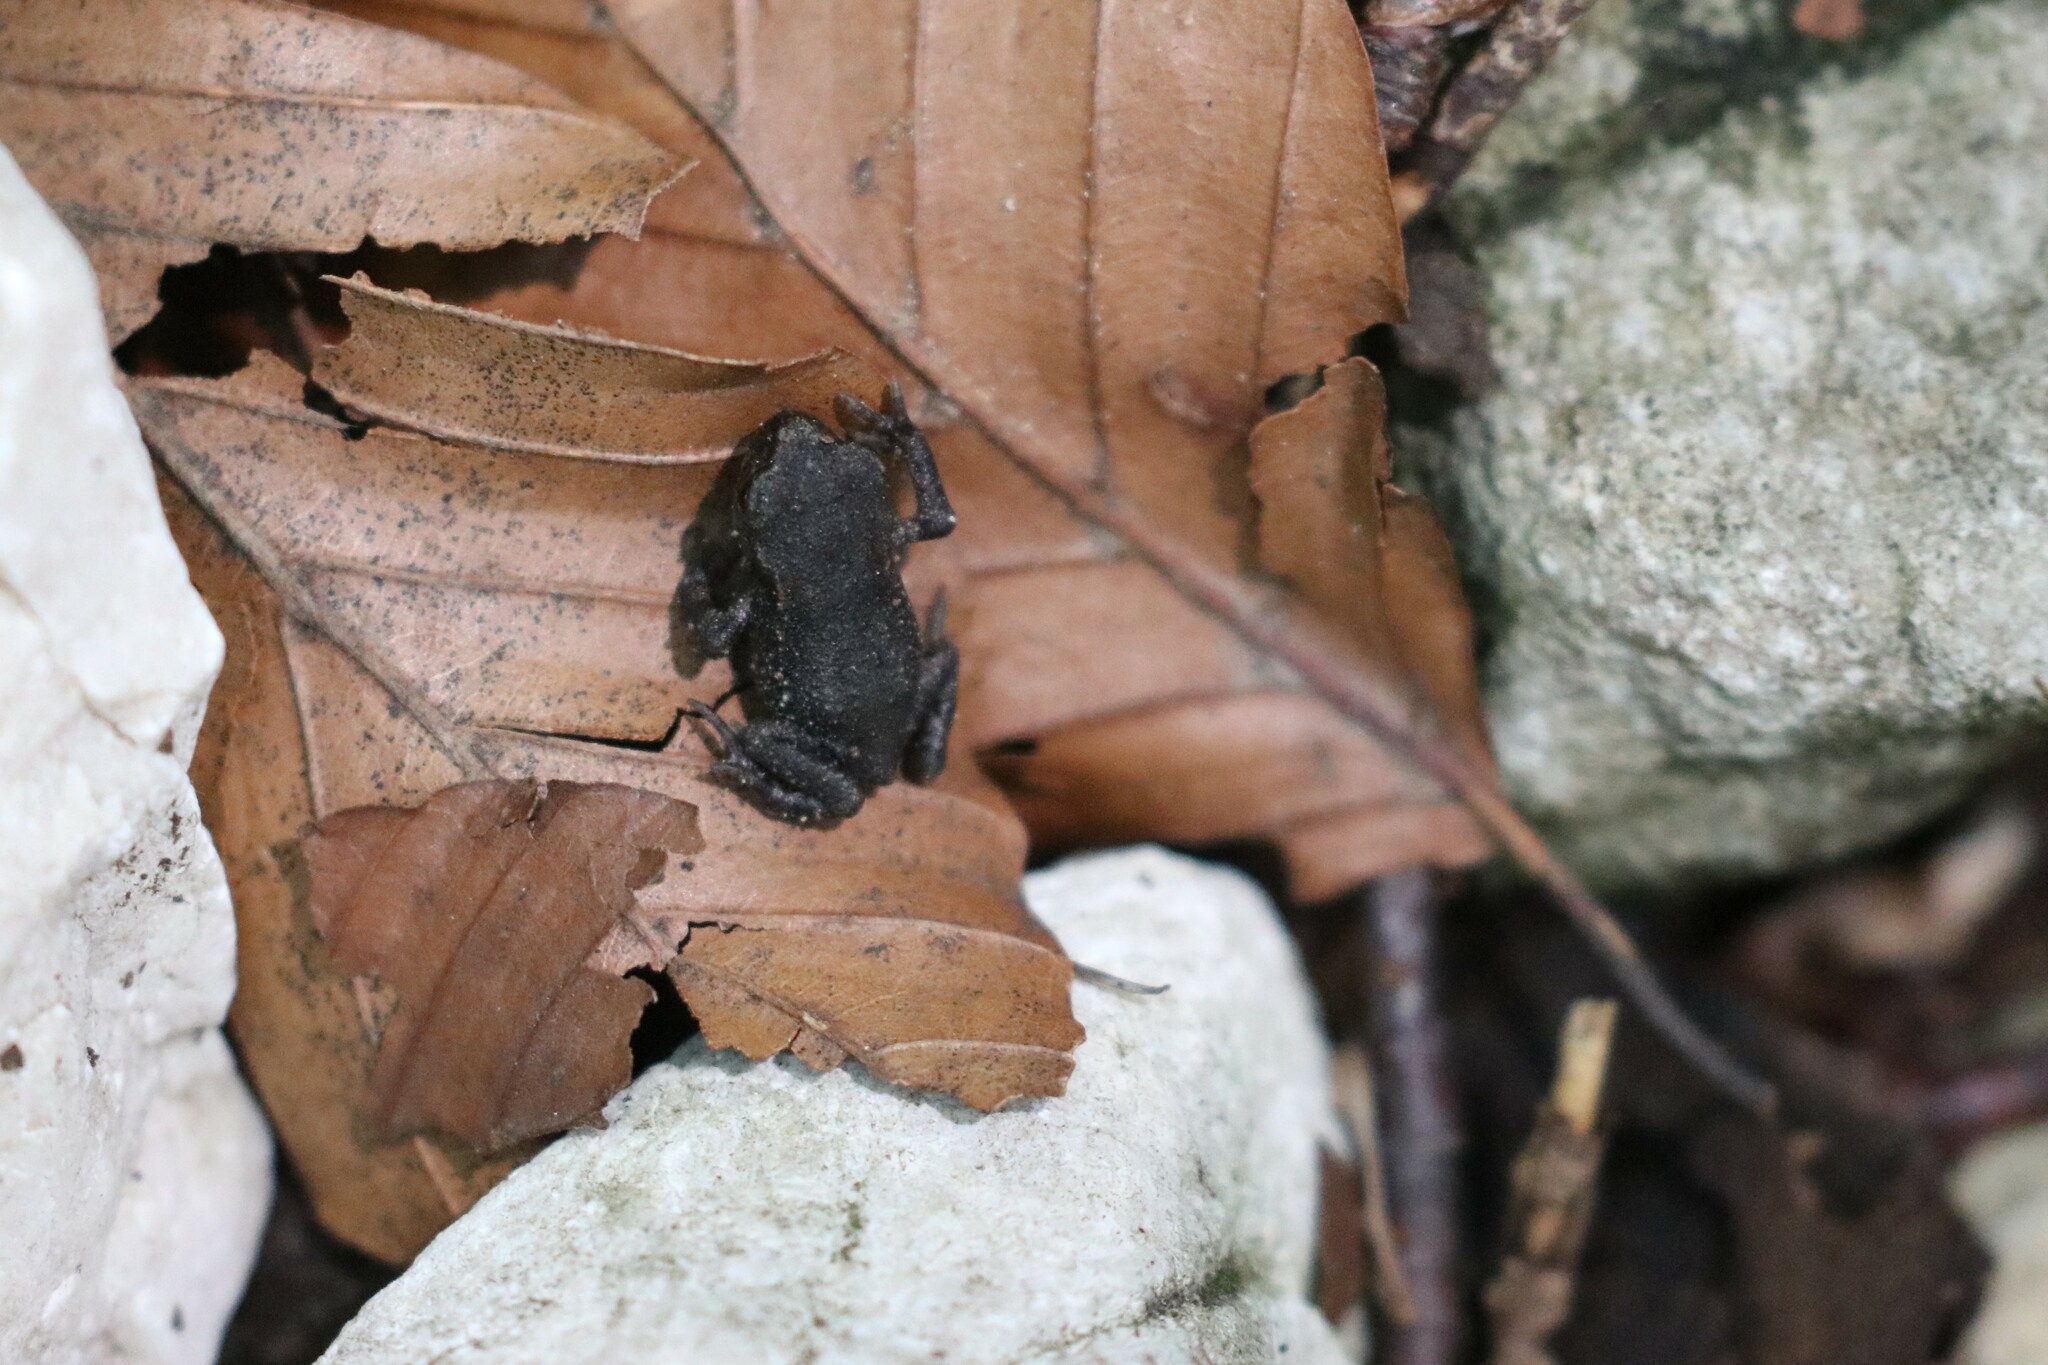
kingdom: Animalia
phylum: Chordata
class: Amphibia
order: Anura
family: Bufonidae
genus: Bufo
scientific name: Bufo bufo
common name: Common toad
